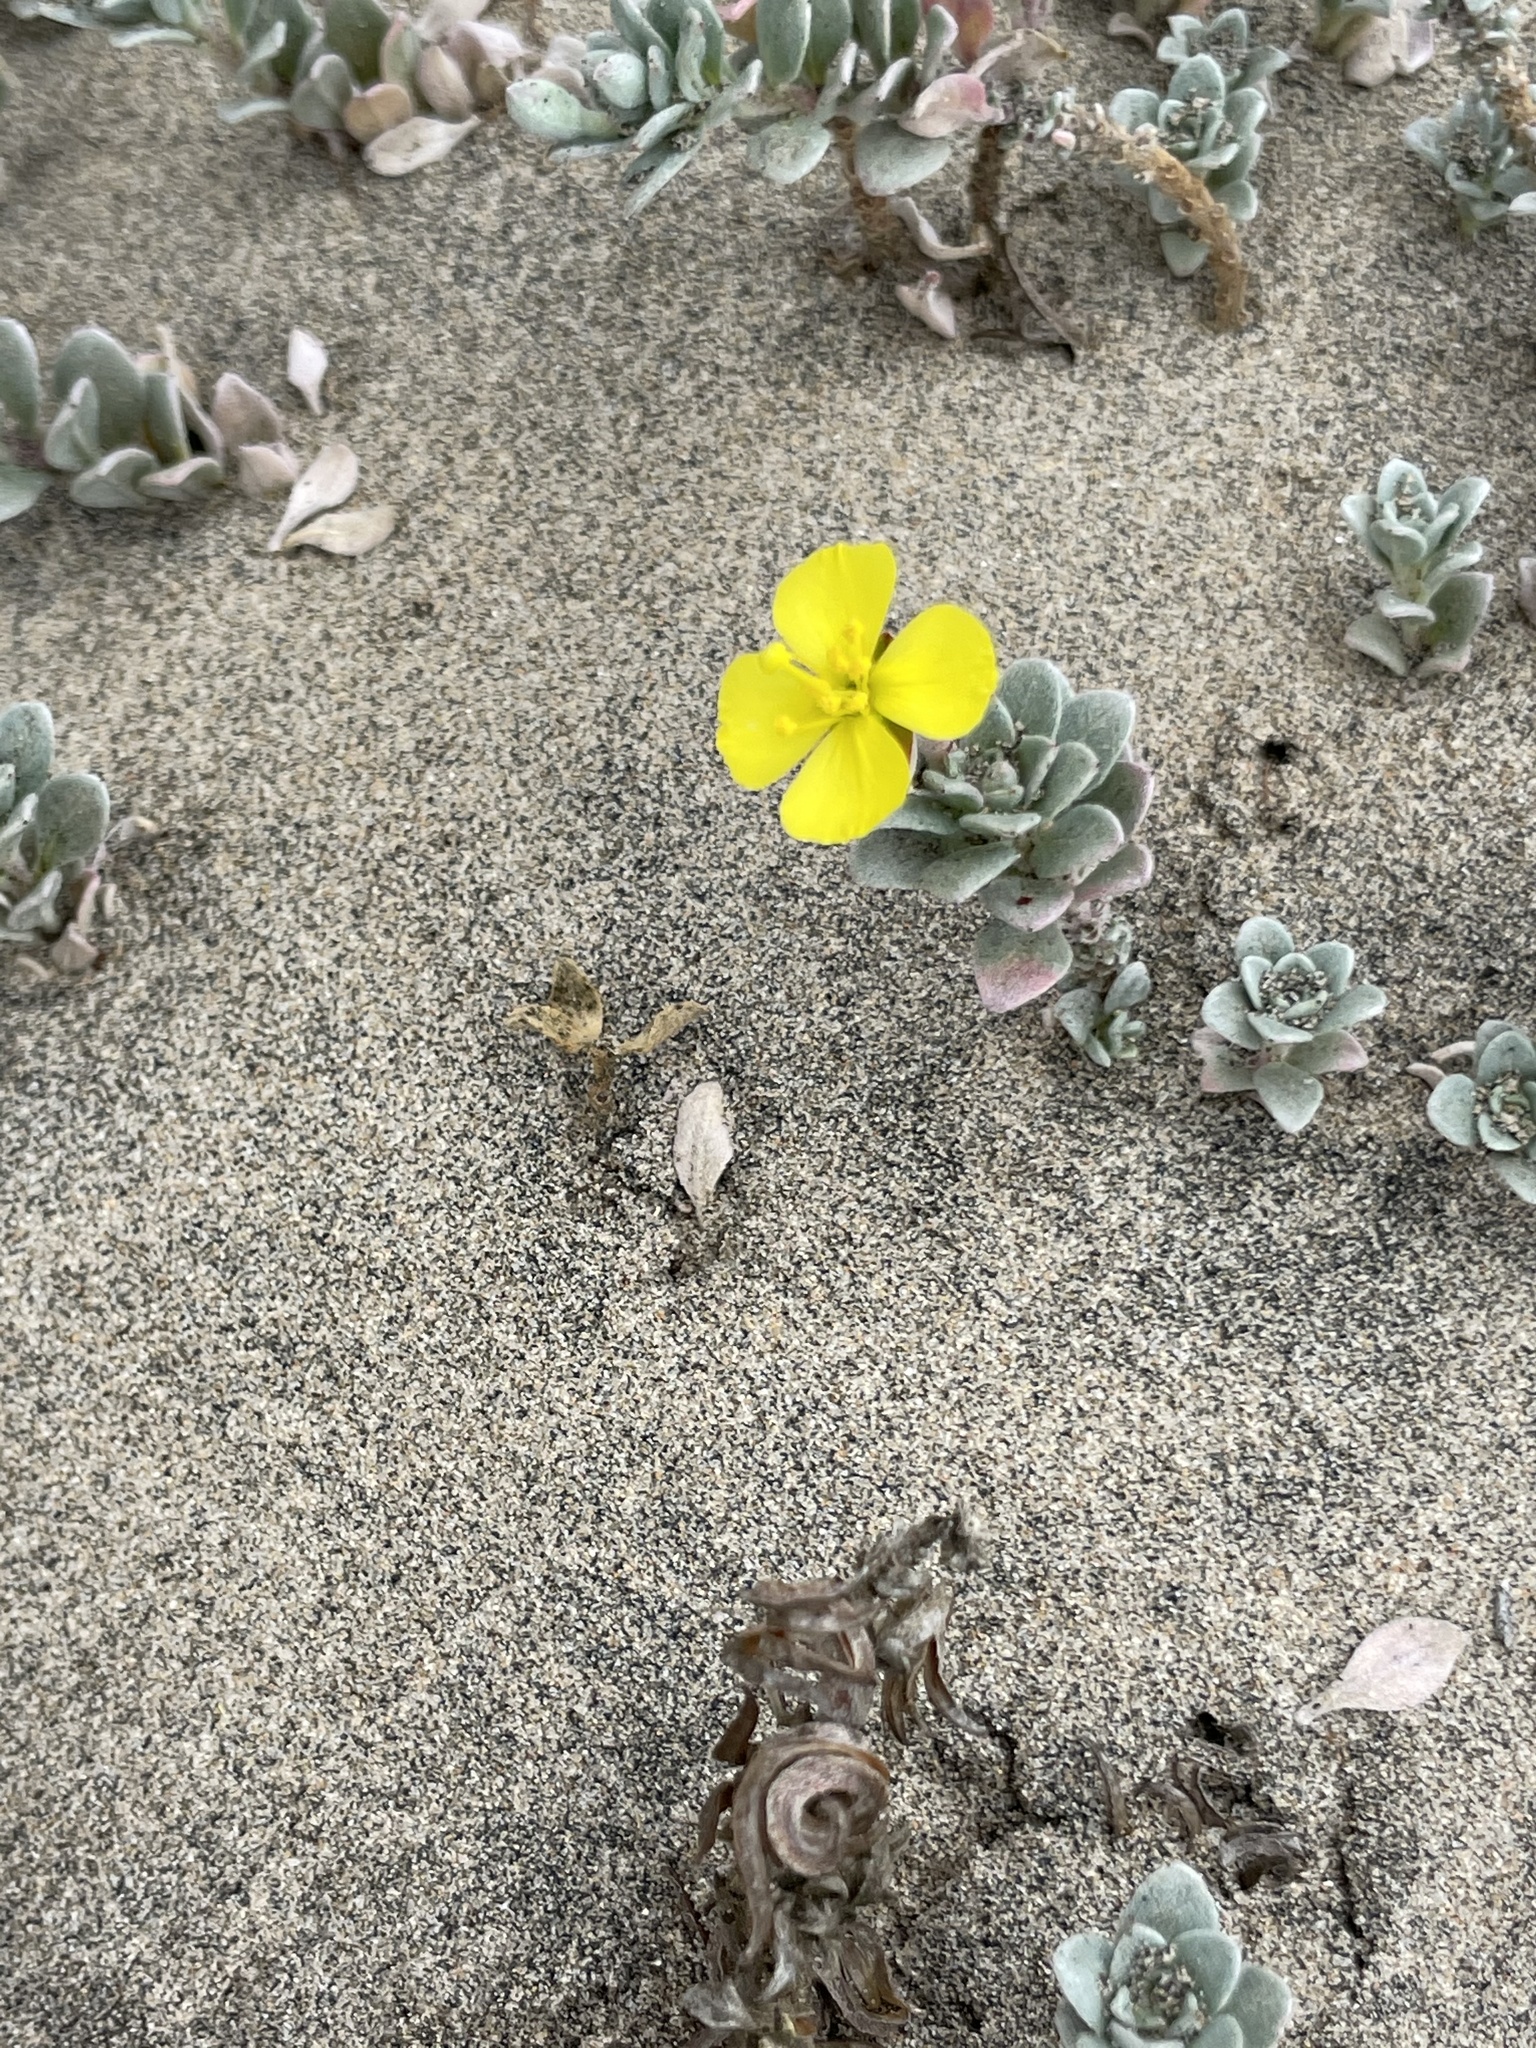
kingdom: Plantae
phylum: Tracheophyta
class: Magnoliopsida
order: Myrtales
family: Onagraceae
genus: Camissoniopsis
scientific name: Camissoniopsis cheiranthifolia
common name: Beach suncup
